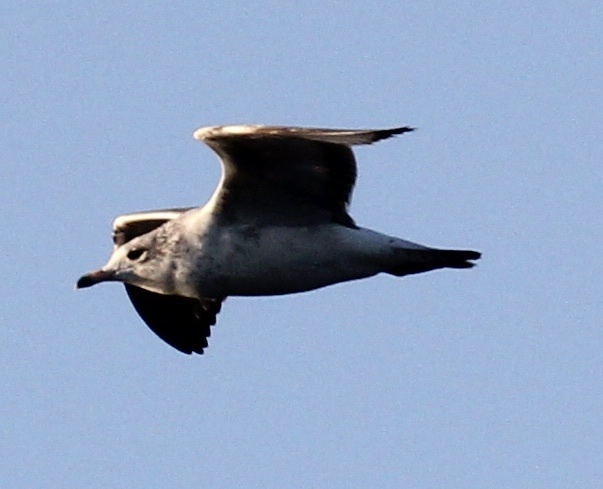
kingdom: Animalia
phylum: Chordata
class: Aves
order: Charadriiformes
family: Laridae
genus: Larus
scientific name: Larus delawarensis
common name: Ring-billed gull
